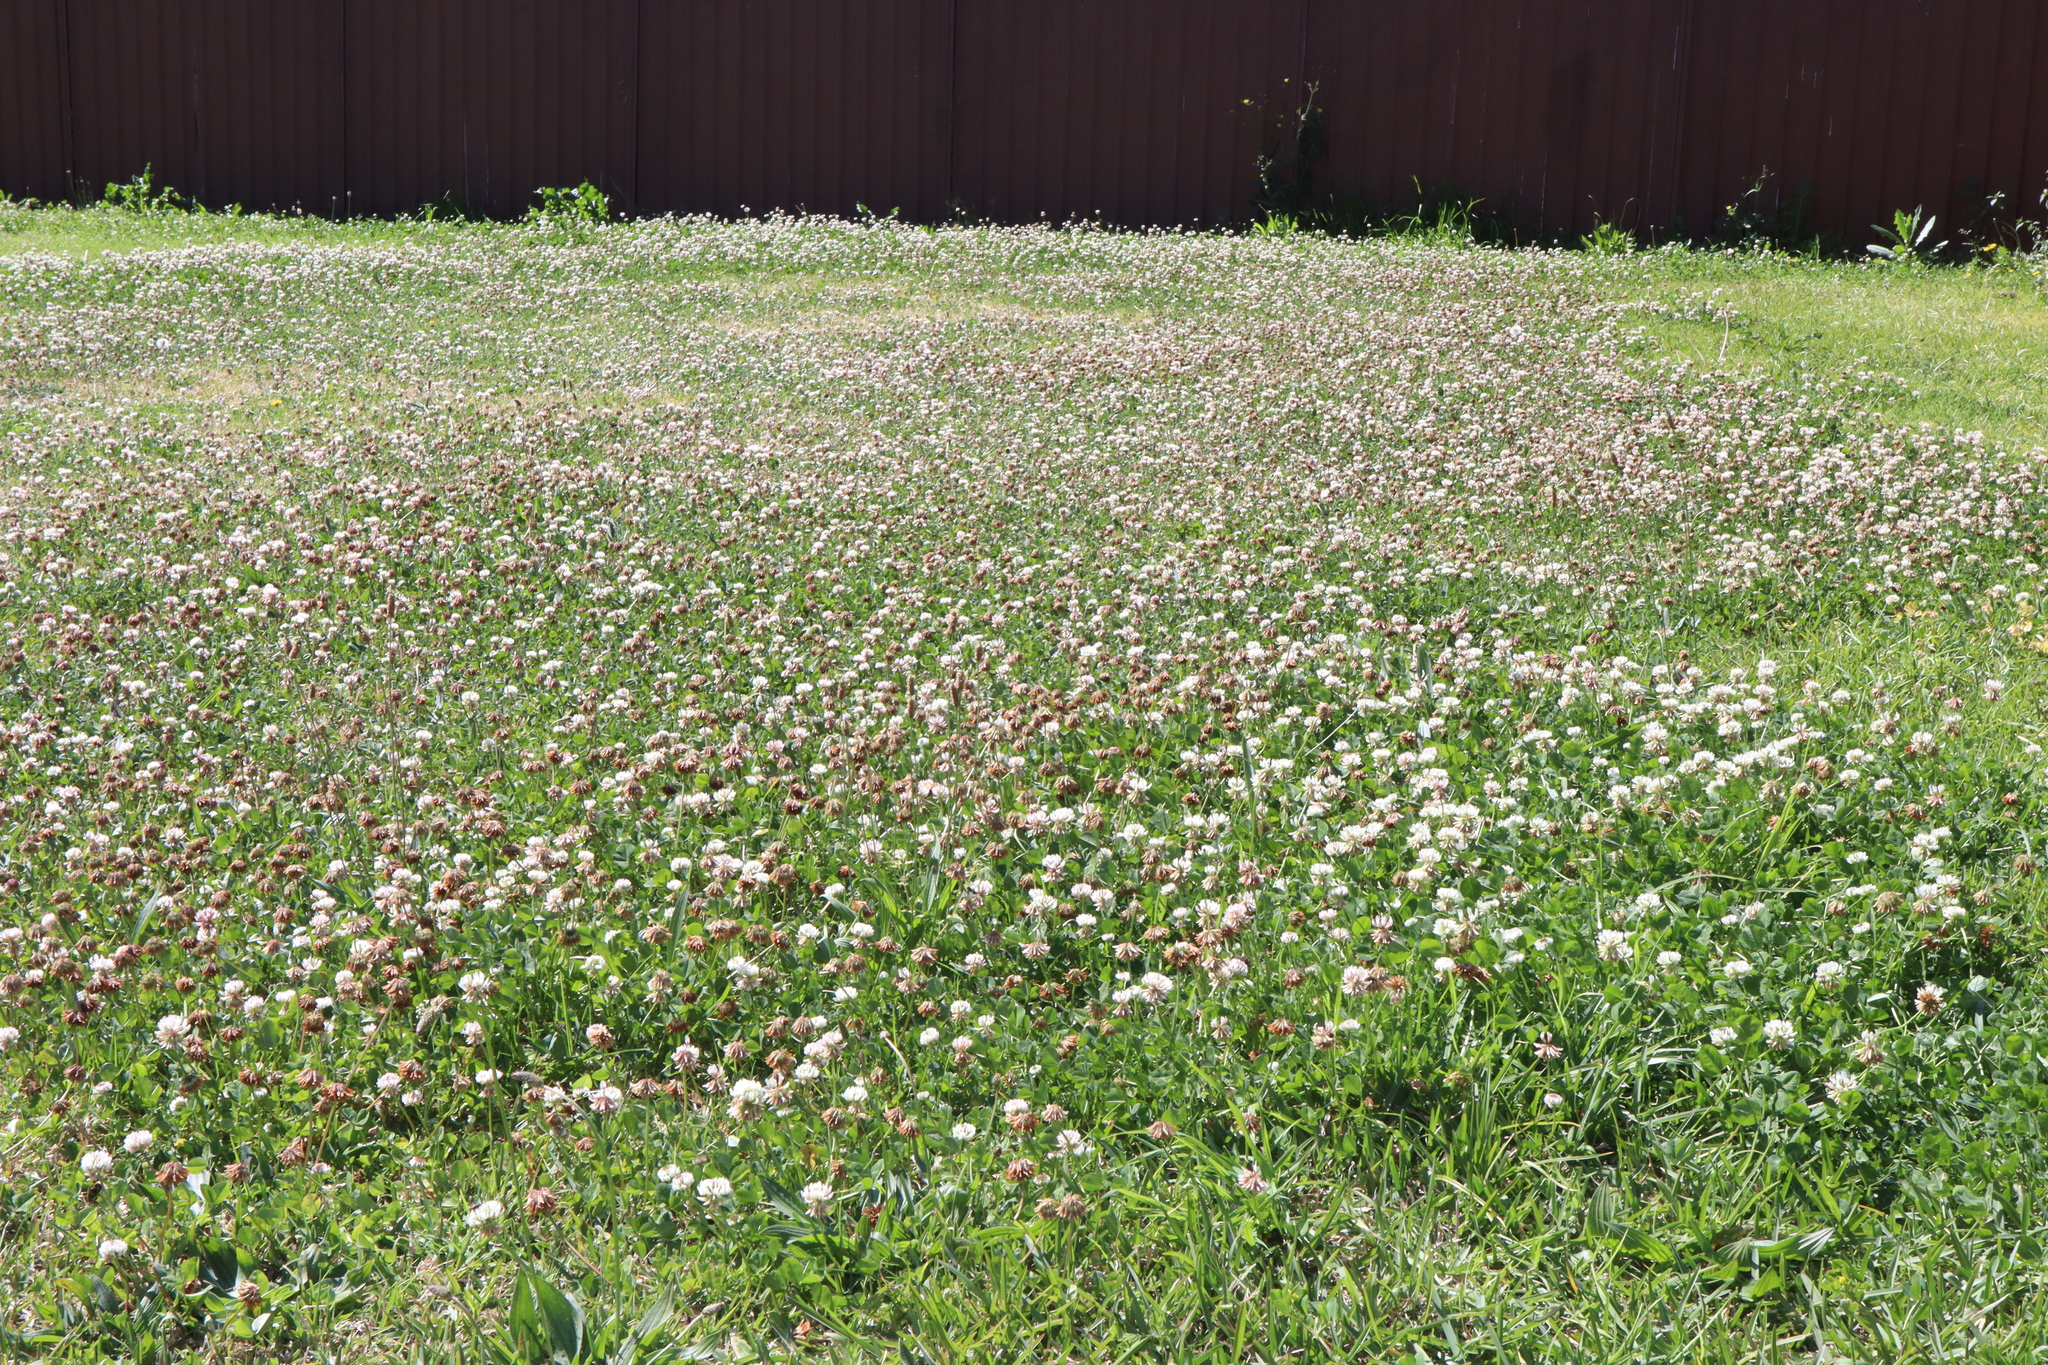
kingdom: Plantae
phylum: Tracheophyta
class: Magnoliopsida
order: Fabales
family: Fabaceae
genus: Trifolium
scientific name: Trifolium repens
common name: White clover
